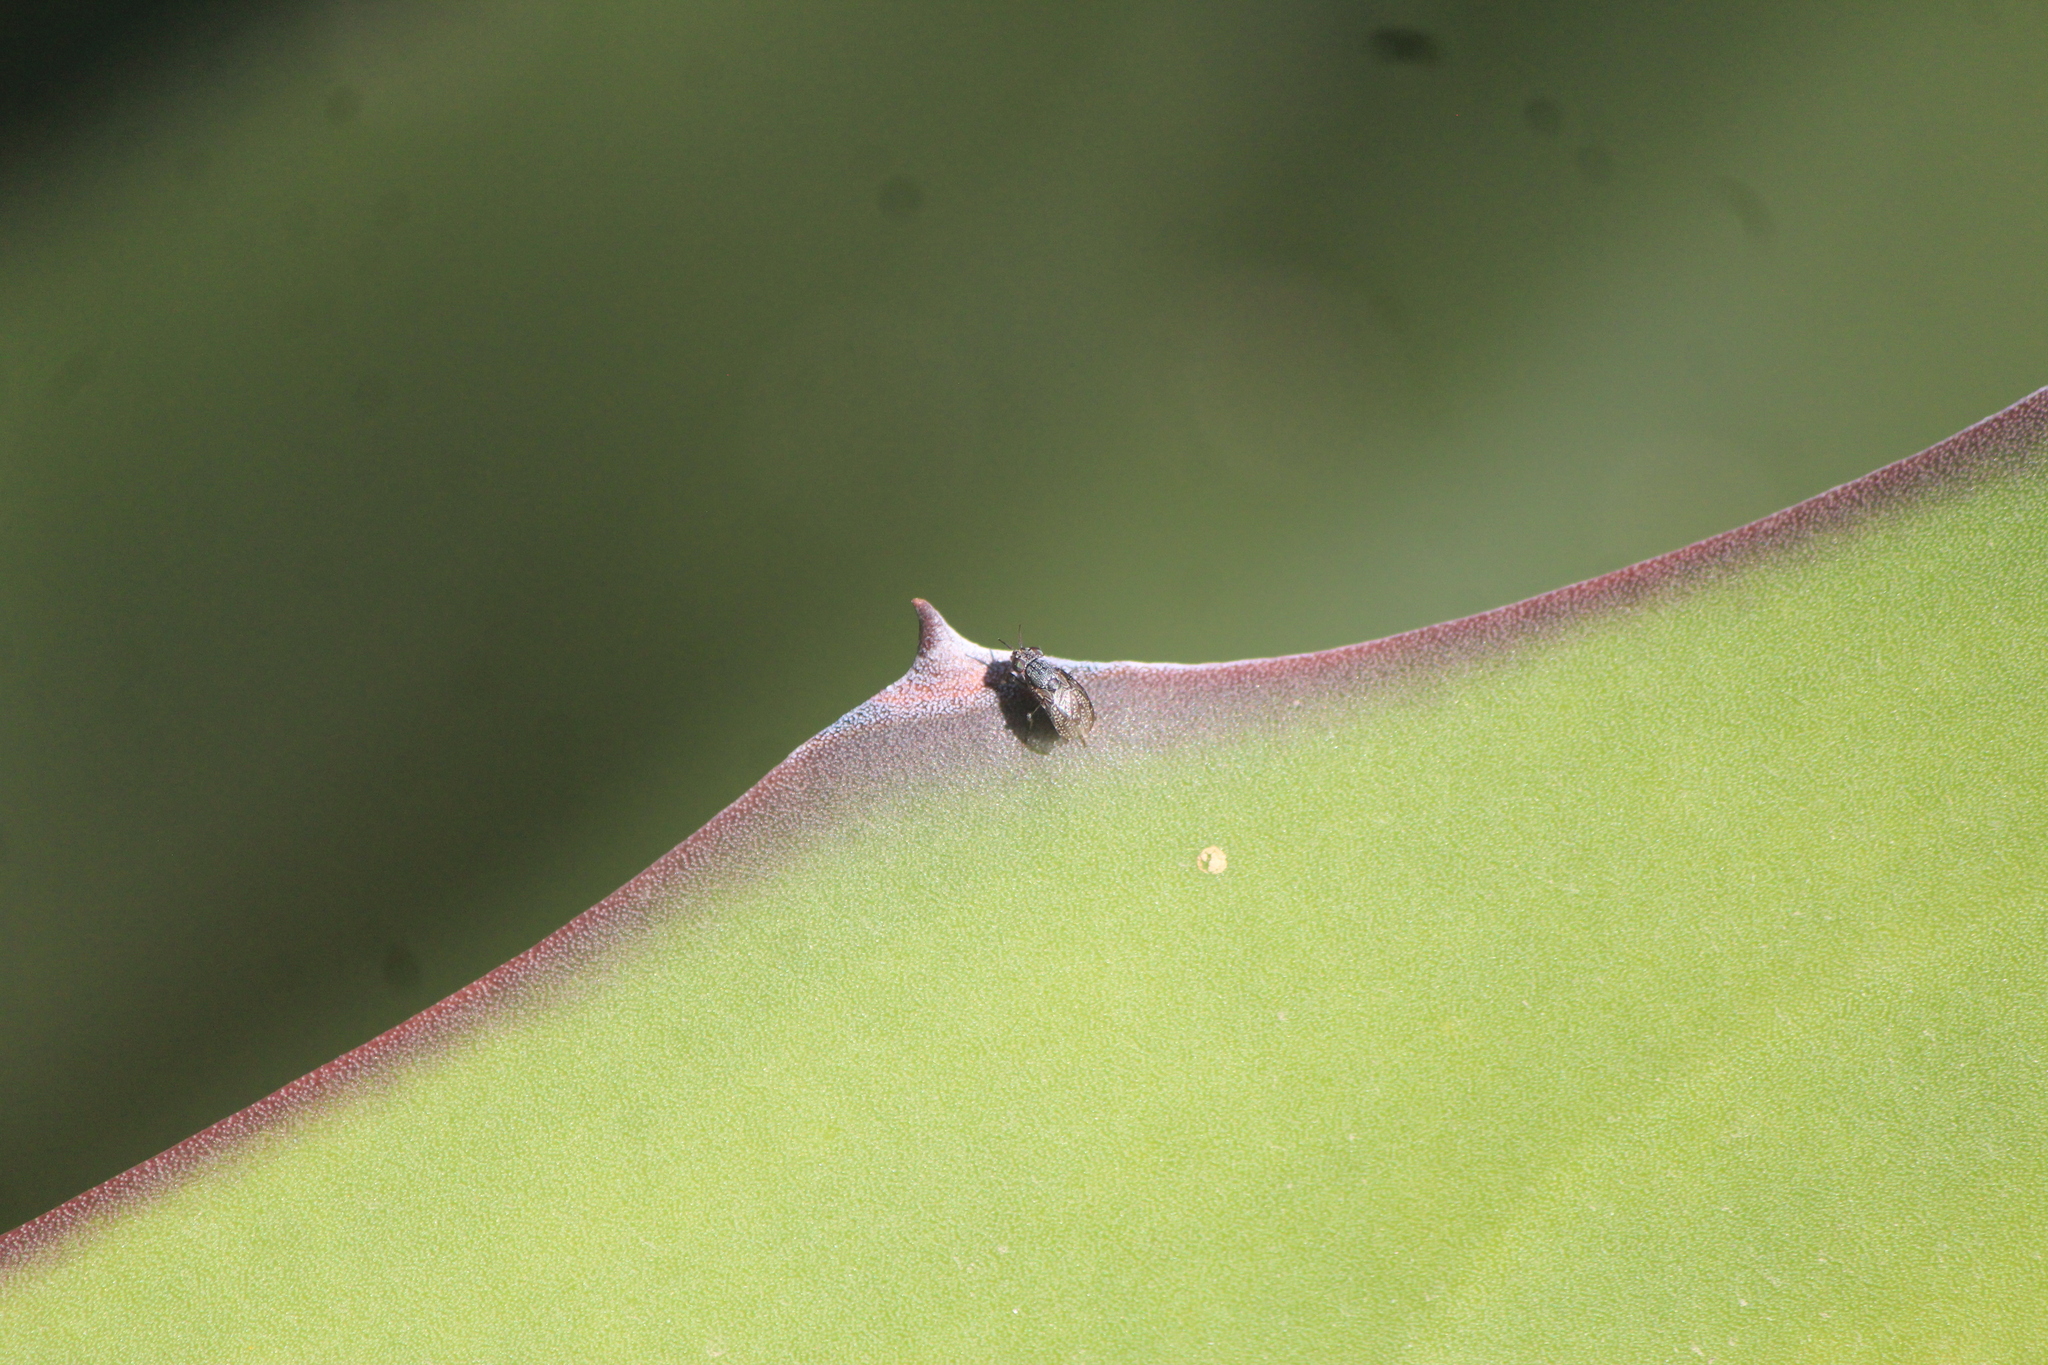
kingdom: Animalia
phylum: Arthropoda
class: Insecta
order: Diptera
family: Ulidiidae
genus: Stictomyia
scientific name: Stictomyia longicornis
